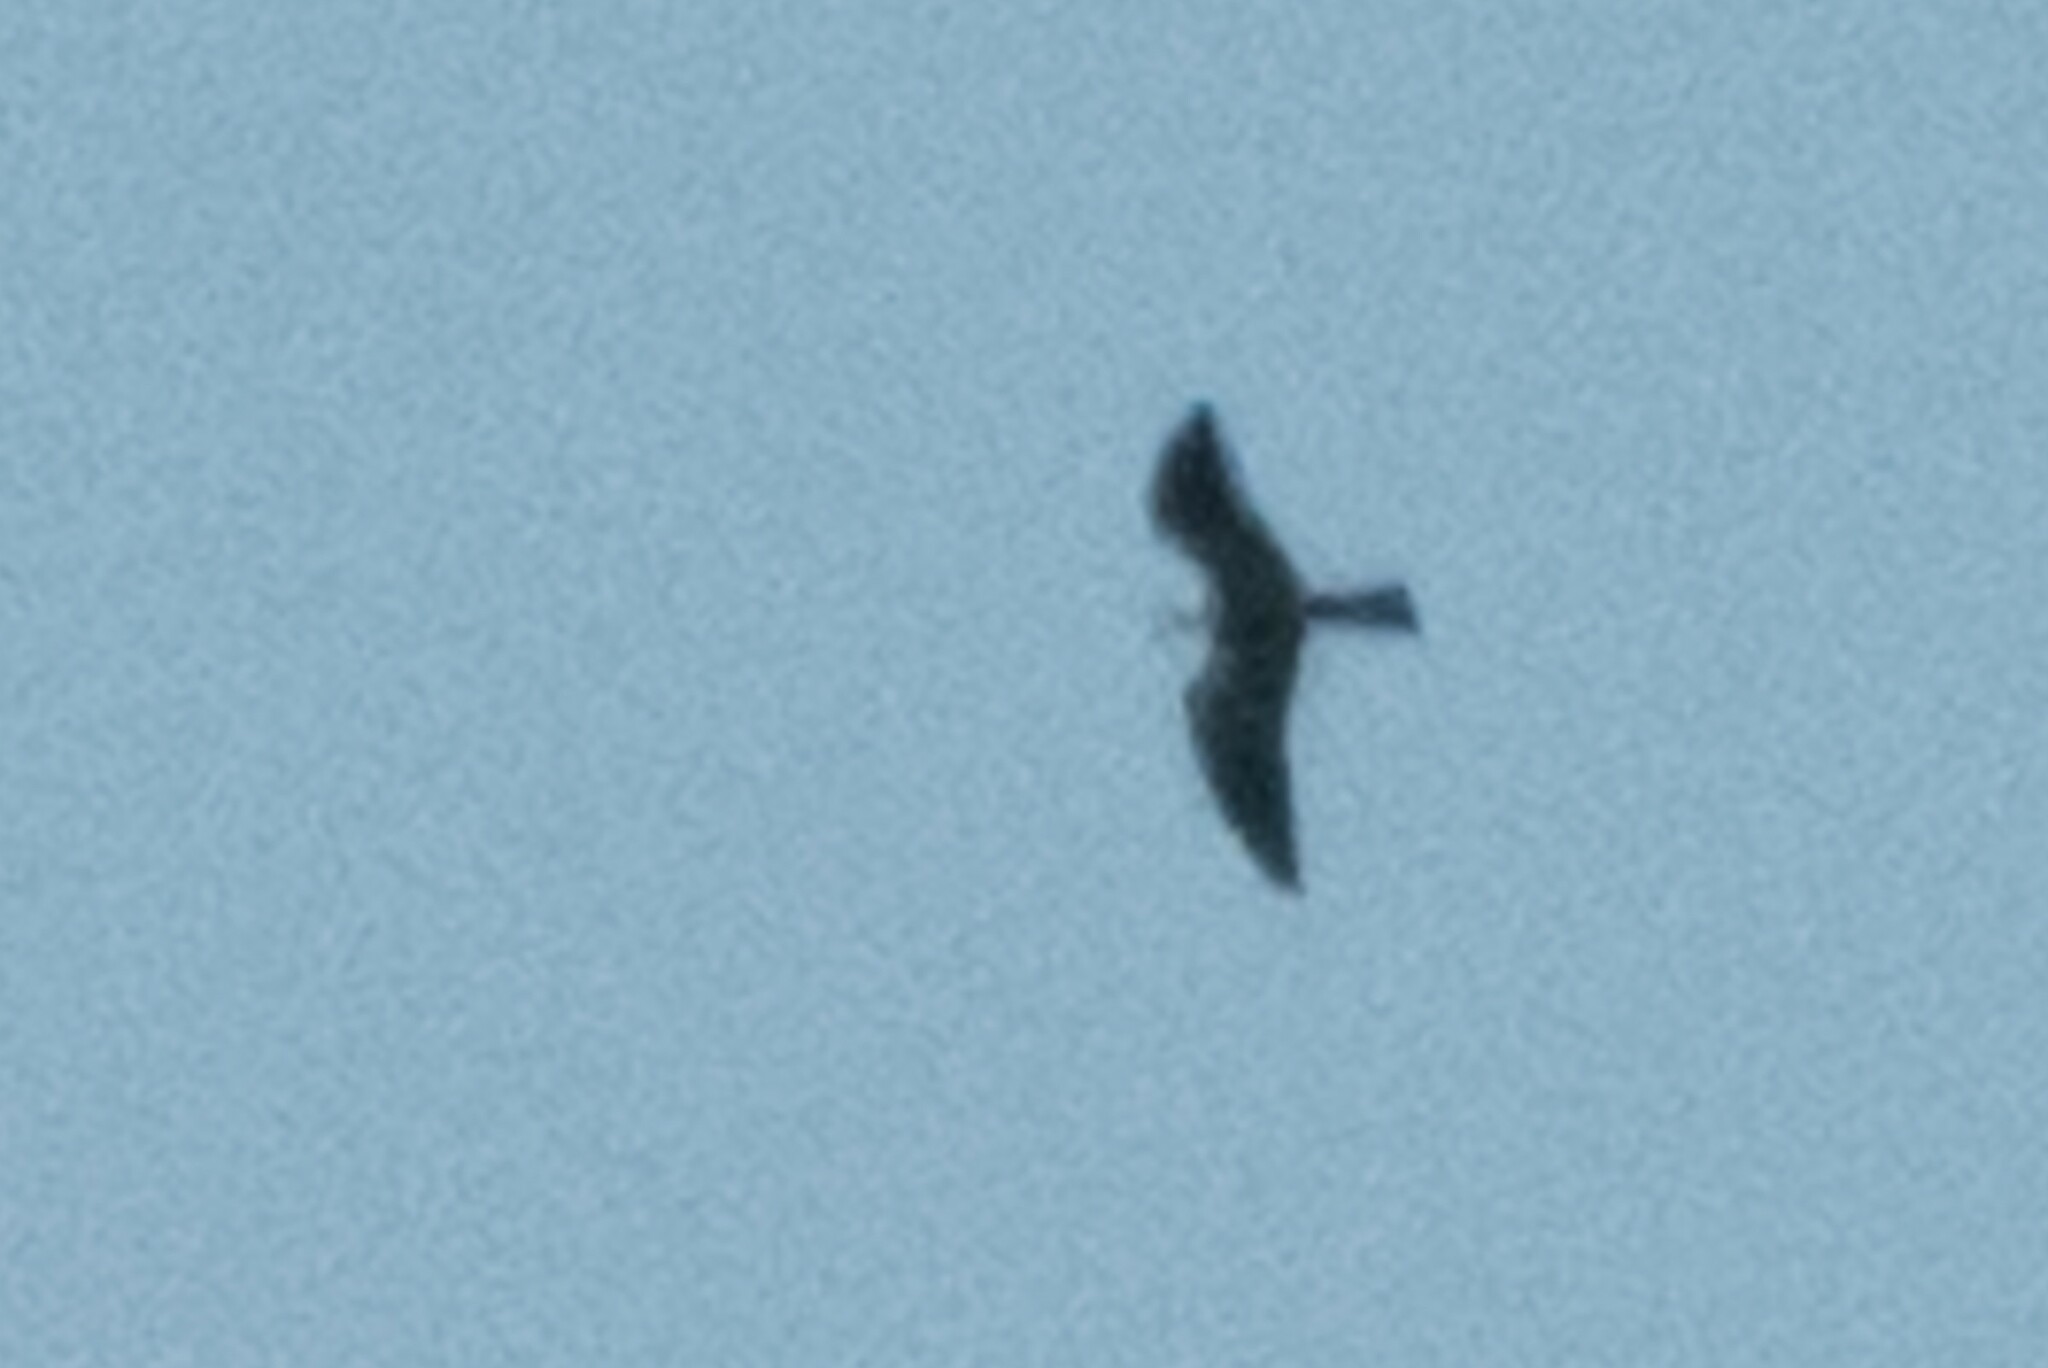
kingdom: Animalia
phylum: Chordata
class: Aves
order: Accipitriformes
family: Accipitridae
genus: Ictinia
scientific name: Ictinia mississippiensis
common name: Mississippi kite
